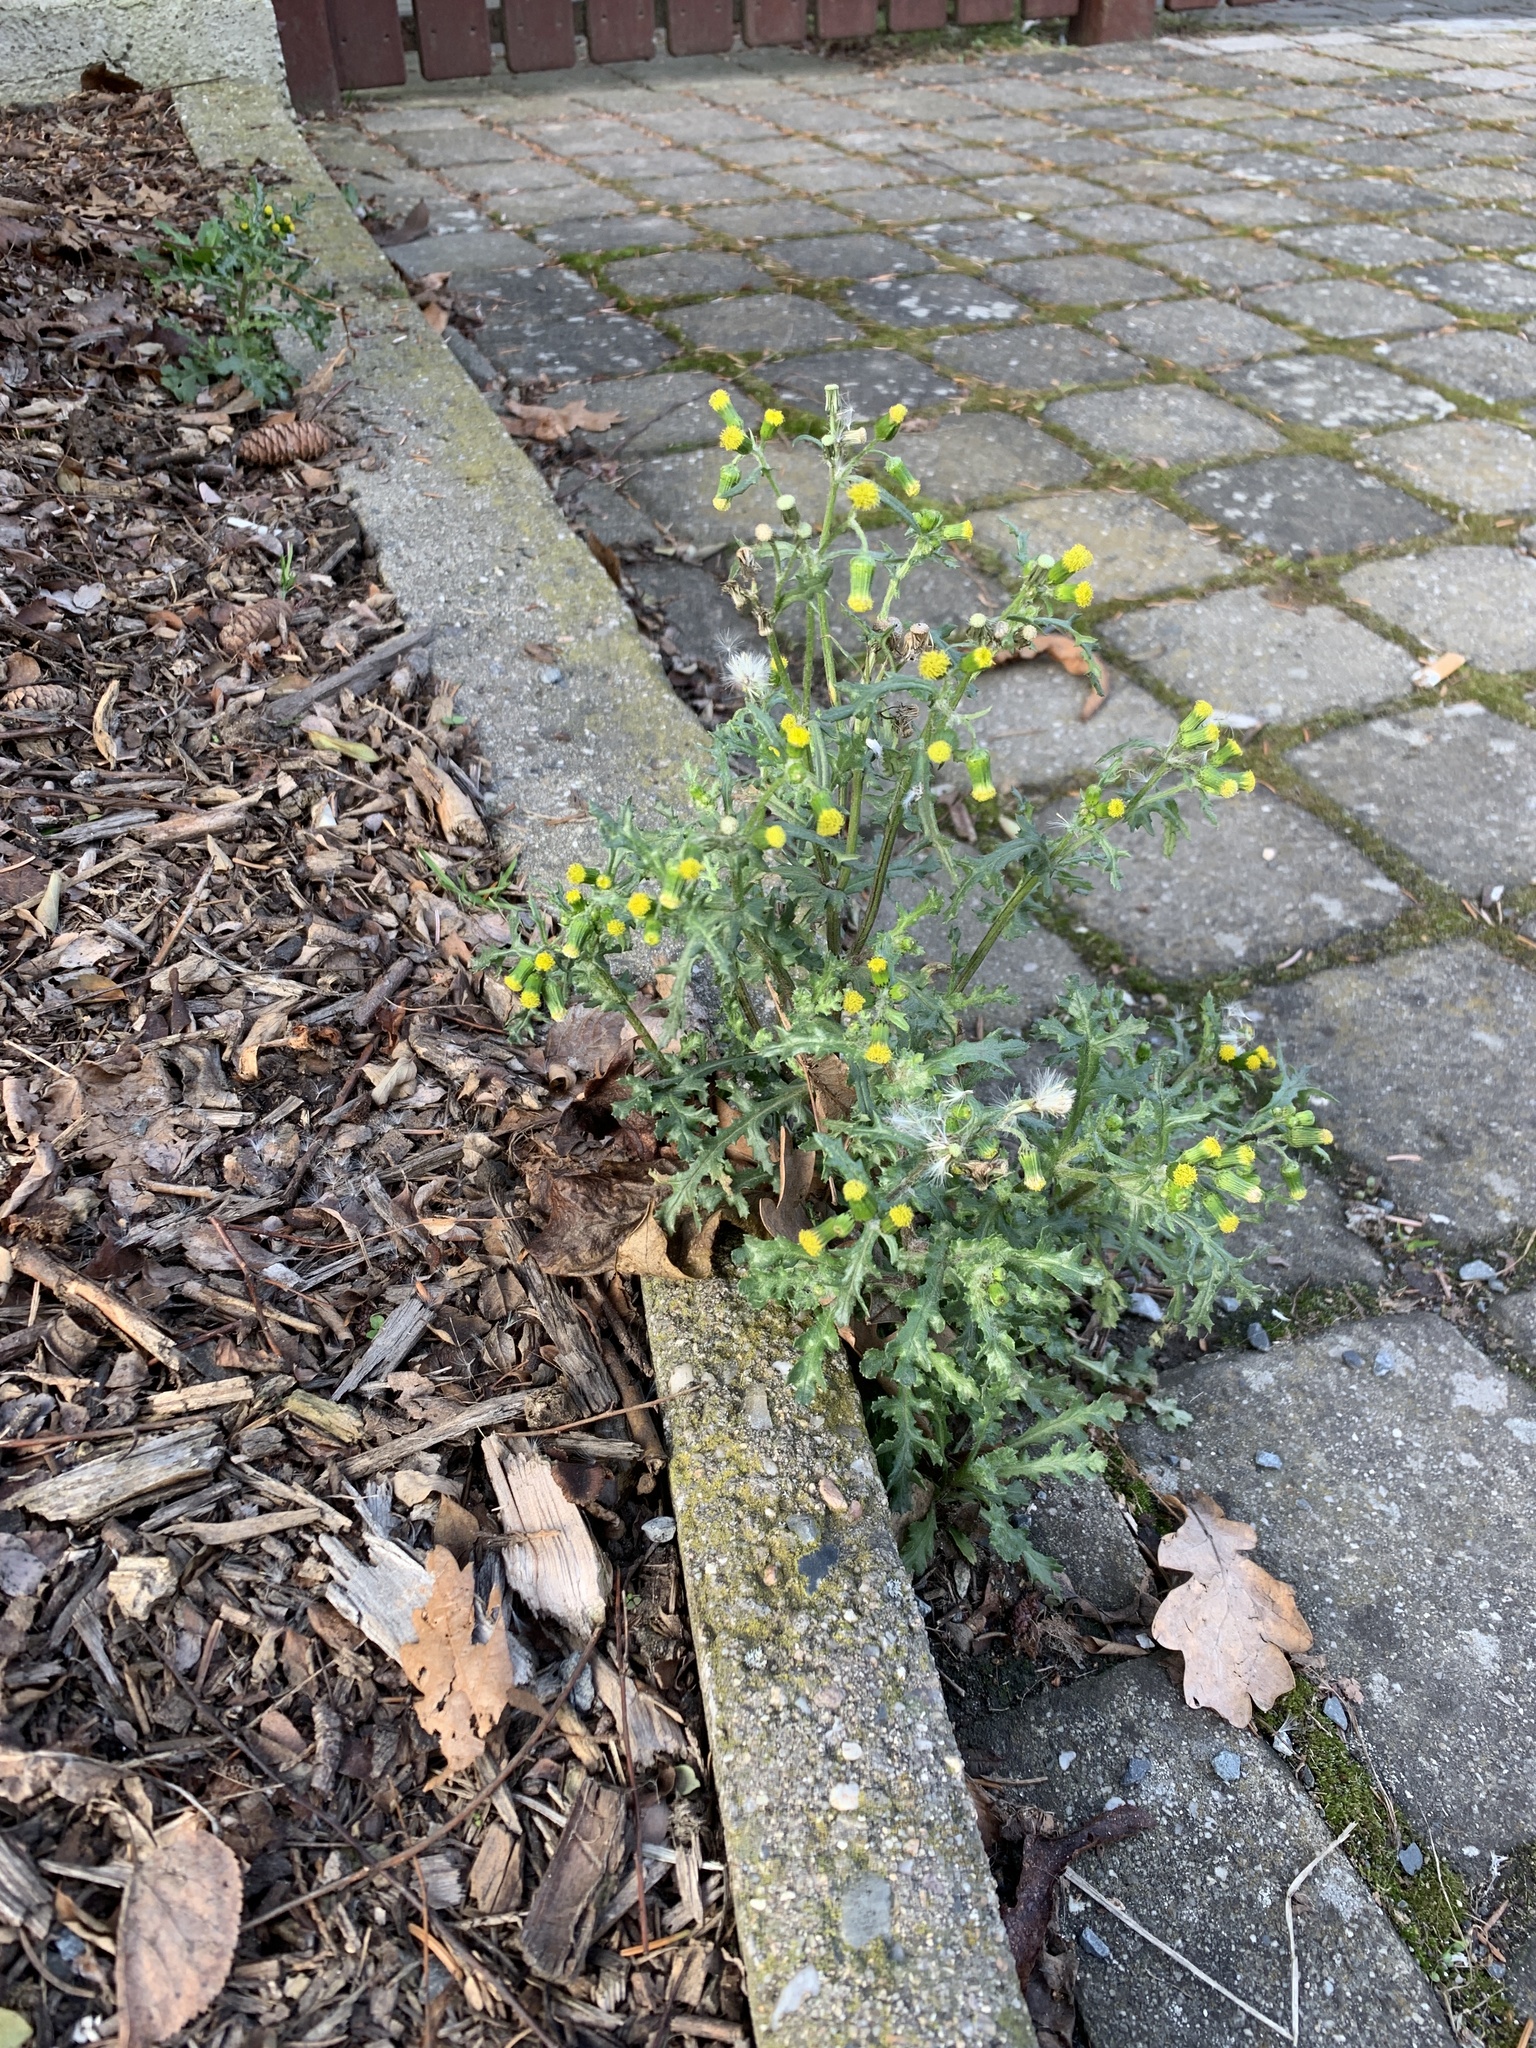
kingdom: Plantae
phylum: Tracheophyta
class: Magnoliopsida
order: Asterales
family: Asteraceae
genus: Senecio
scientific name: Senecio vulgaris
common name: Old-man-in-the-spring
